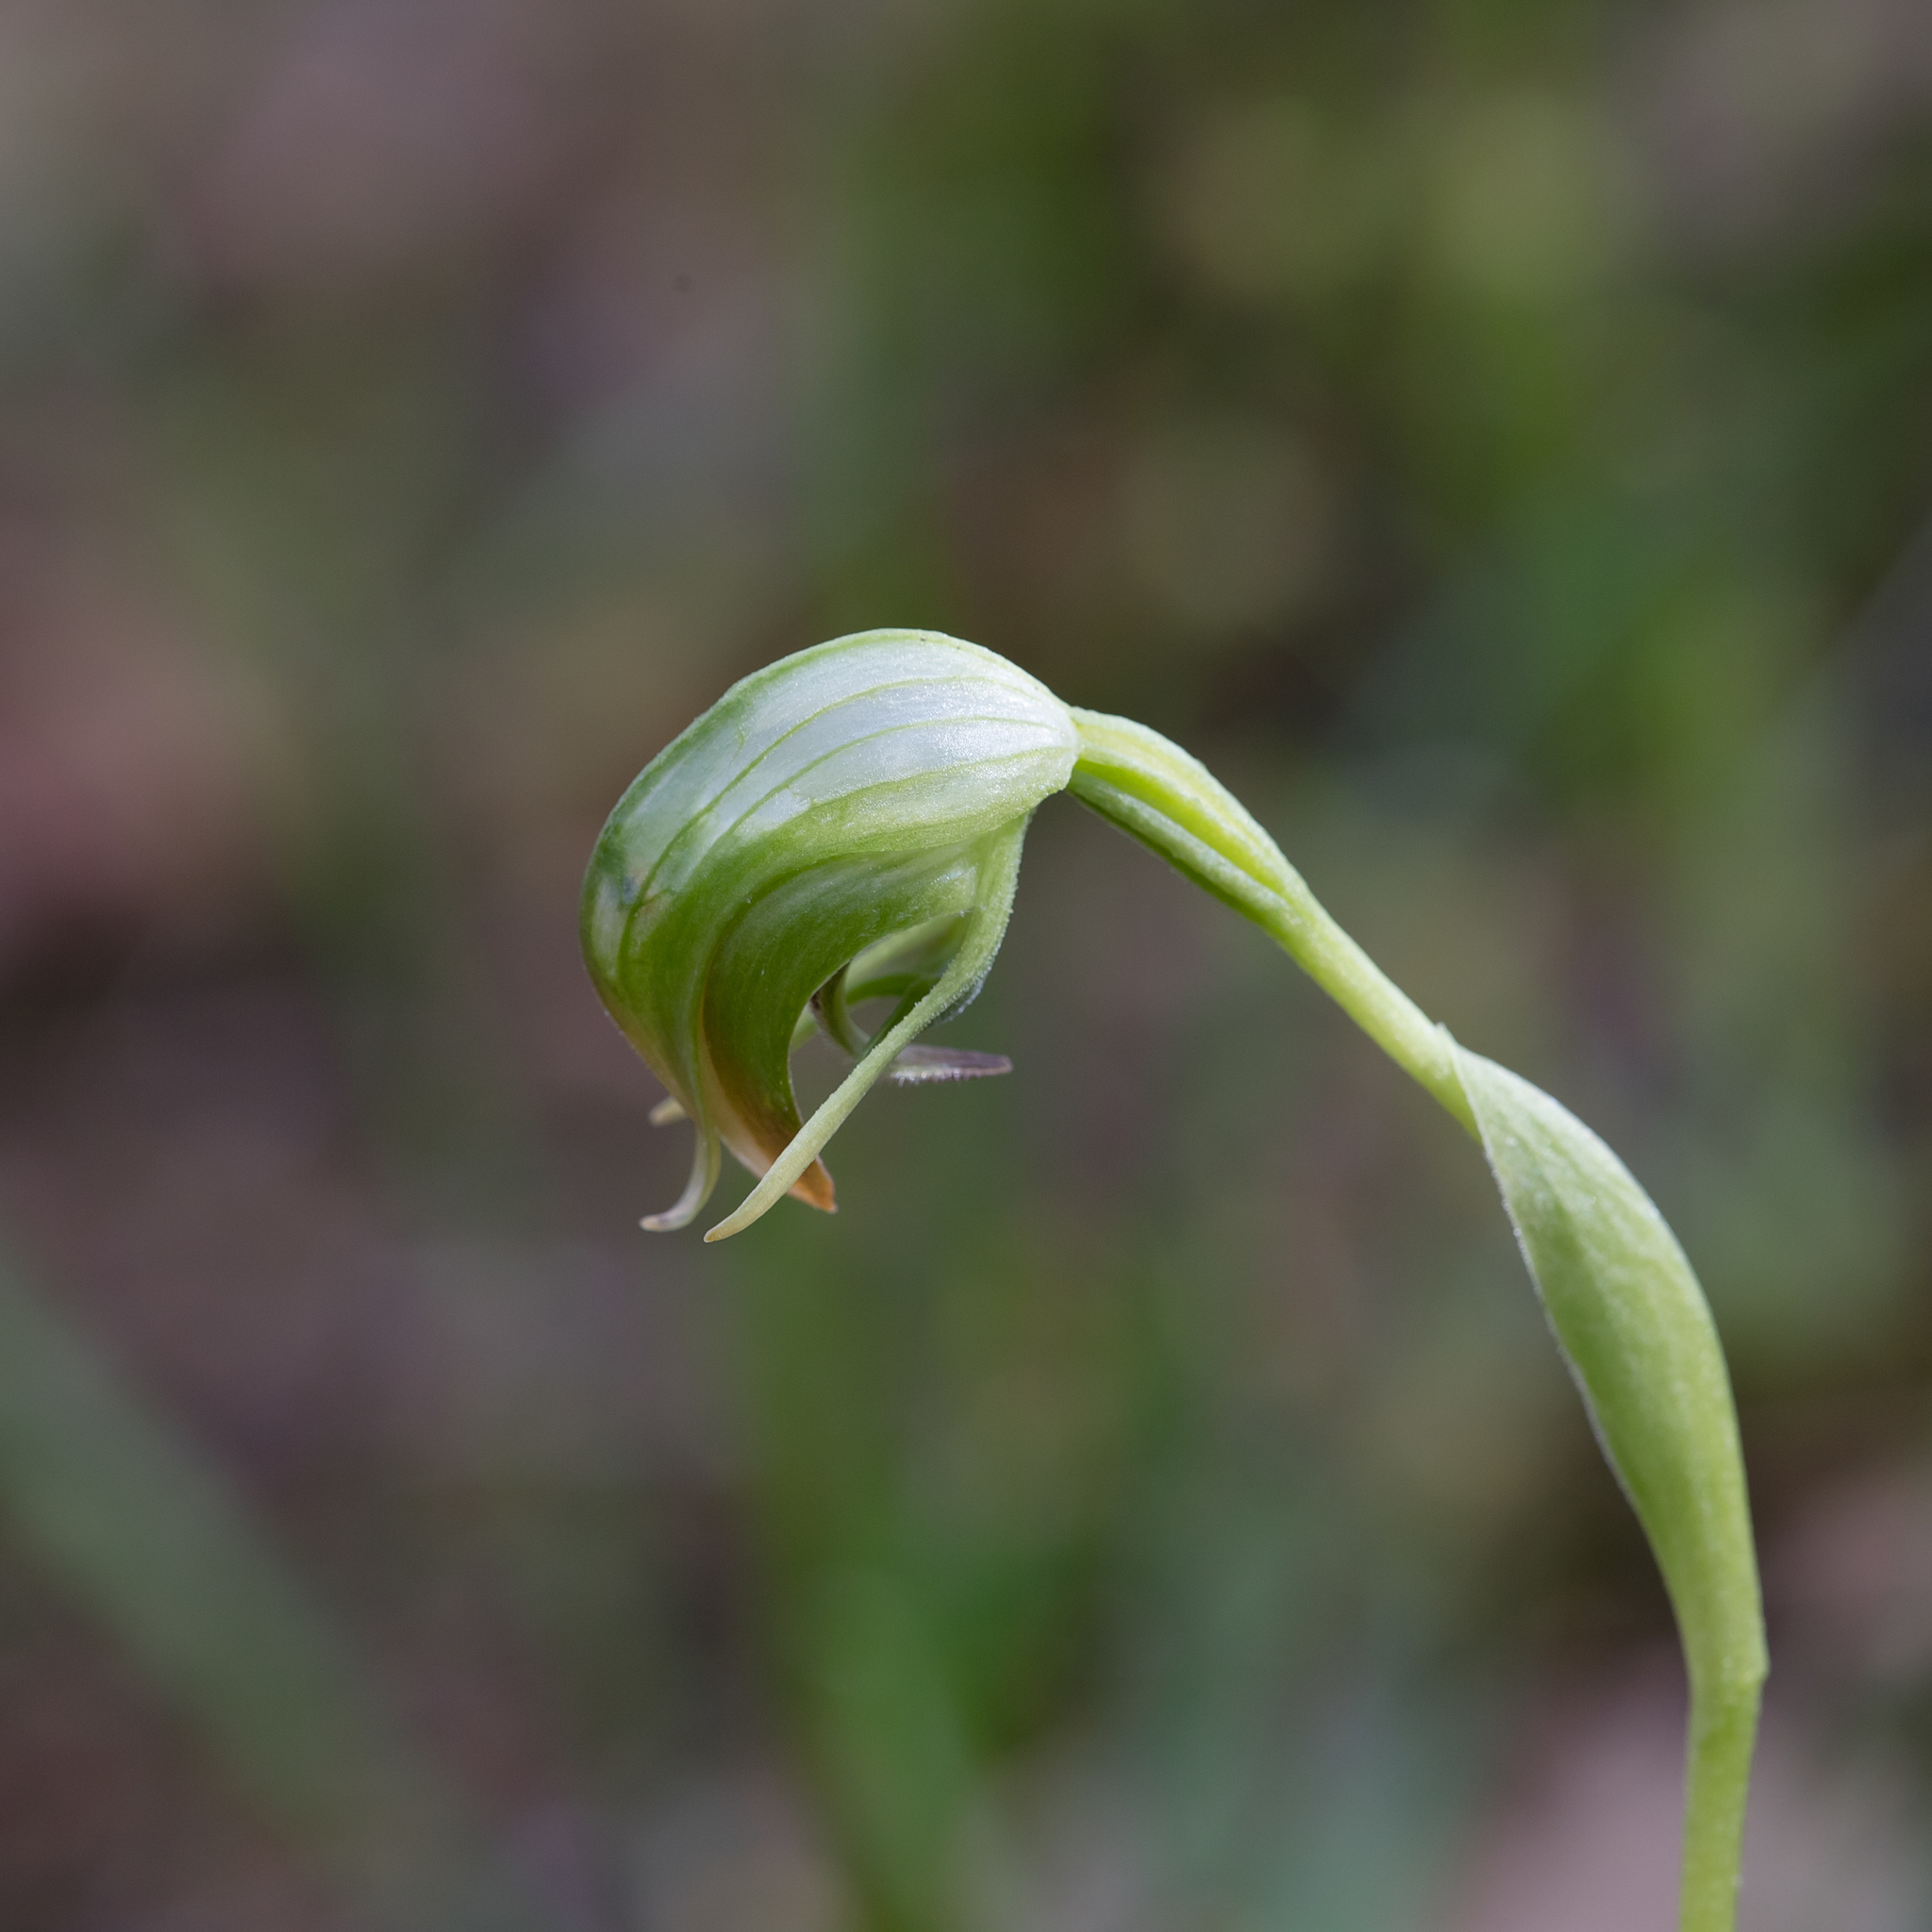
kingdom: Plantae
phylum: Tracheophyta
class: Liliopsida
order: Asparagales
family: Orchidaceae
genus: Pterostylis
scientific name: Pterostylis nutans
